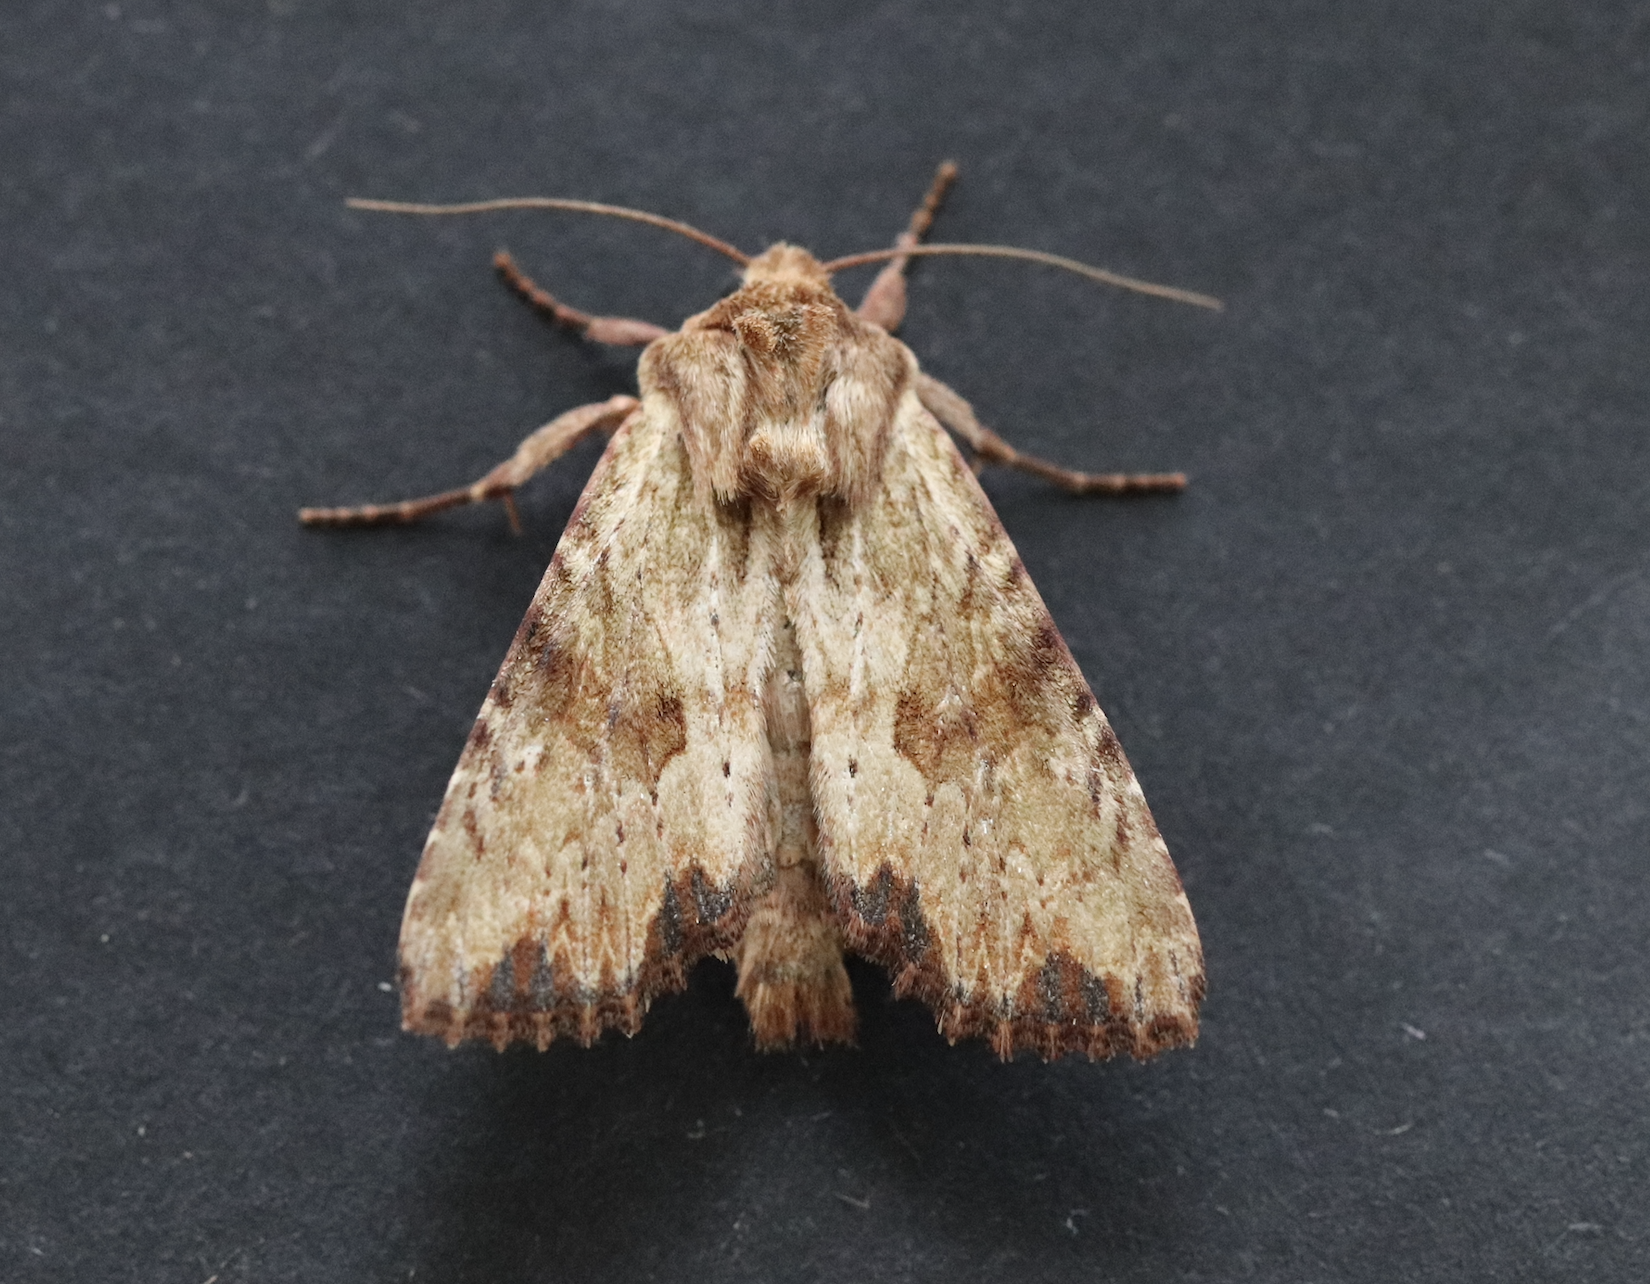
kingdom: Animalia
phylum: Arthropoda
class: Insecta
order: Lepidoptera
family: Noctuidae
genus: Apamea
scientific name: Apamea sublustris
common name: Reddish light arches
